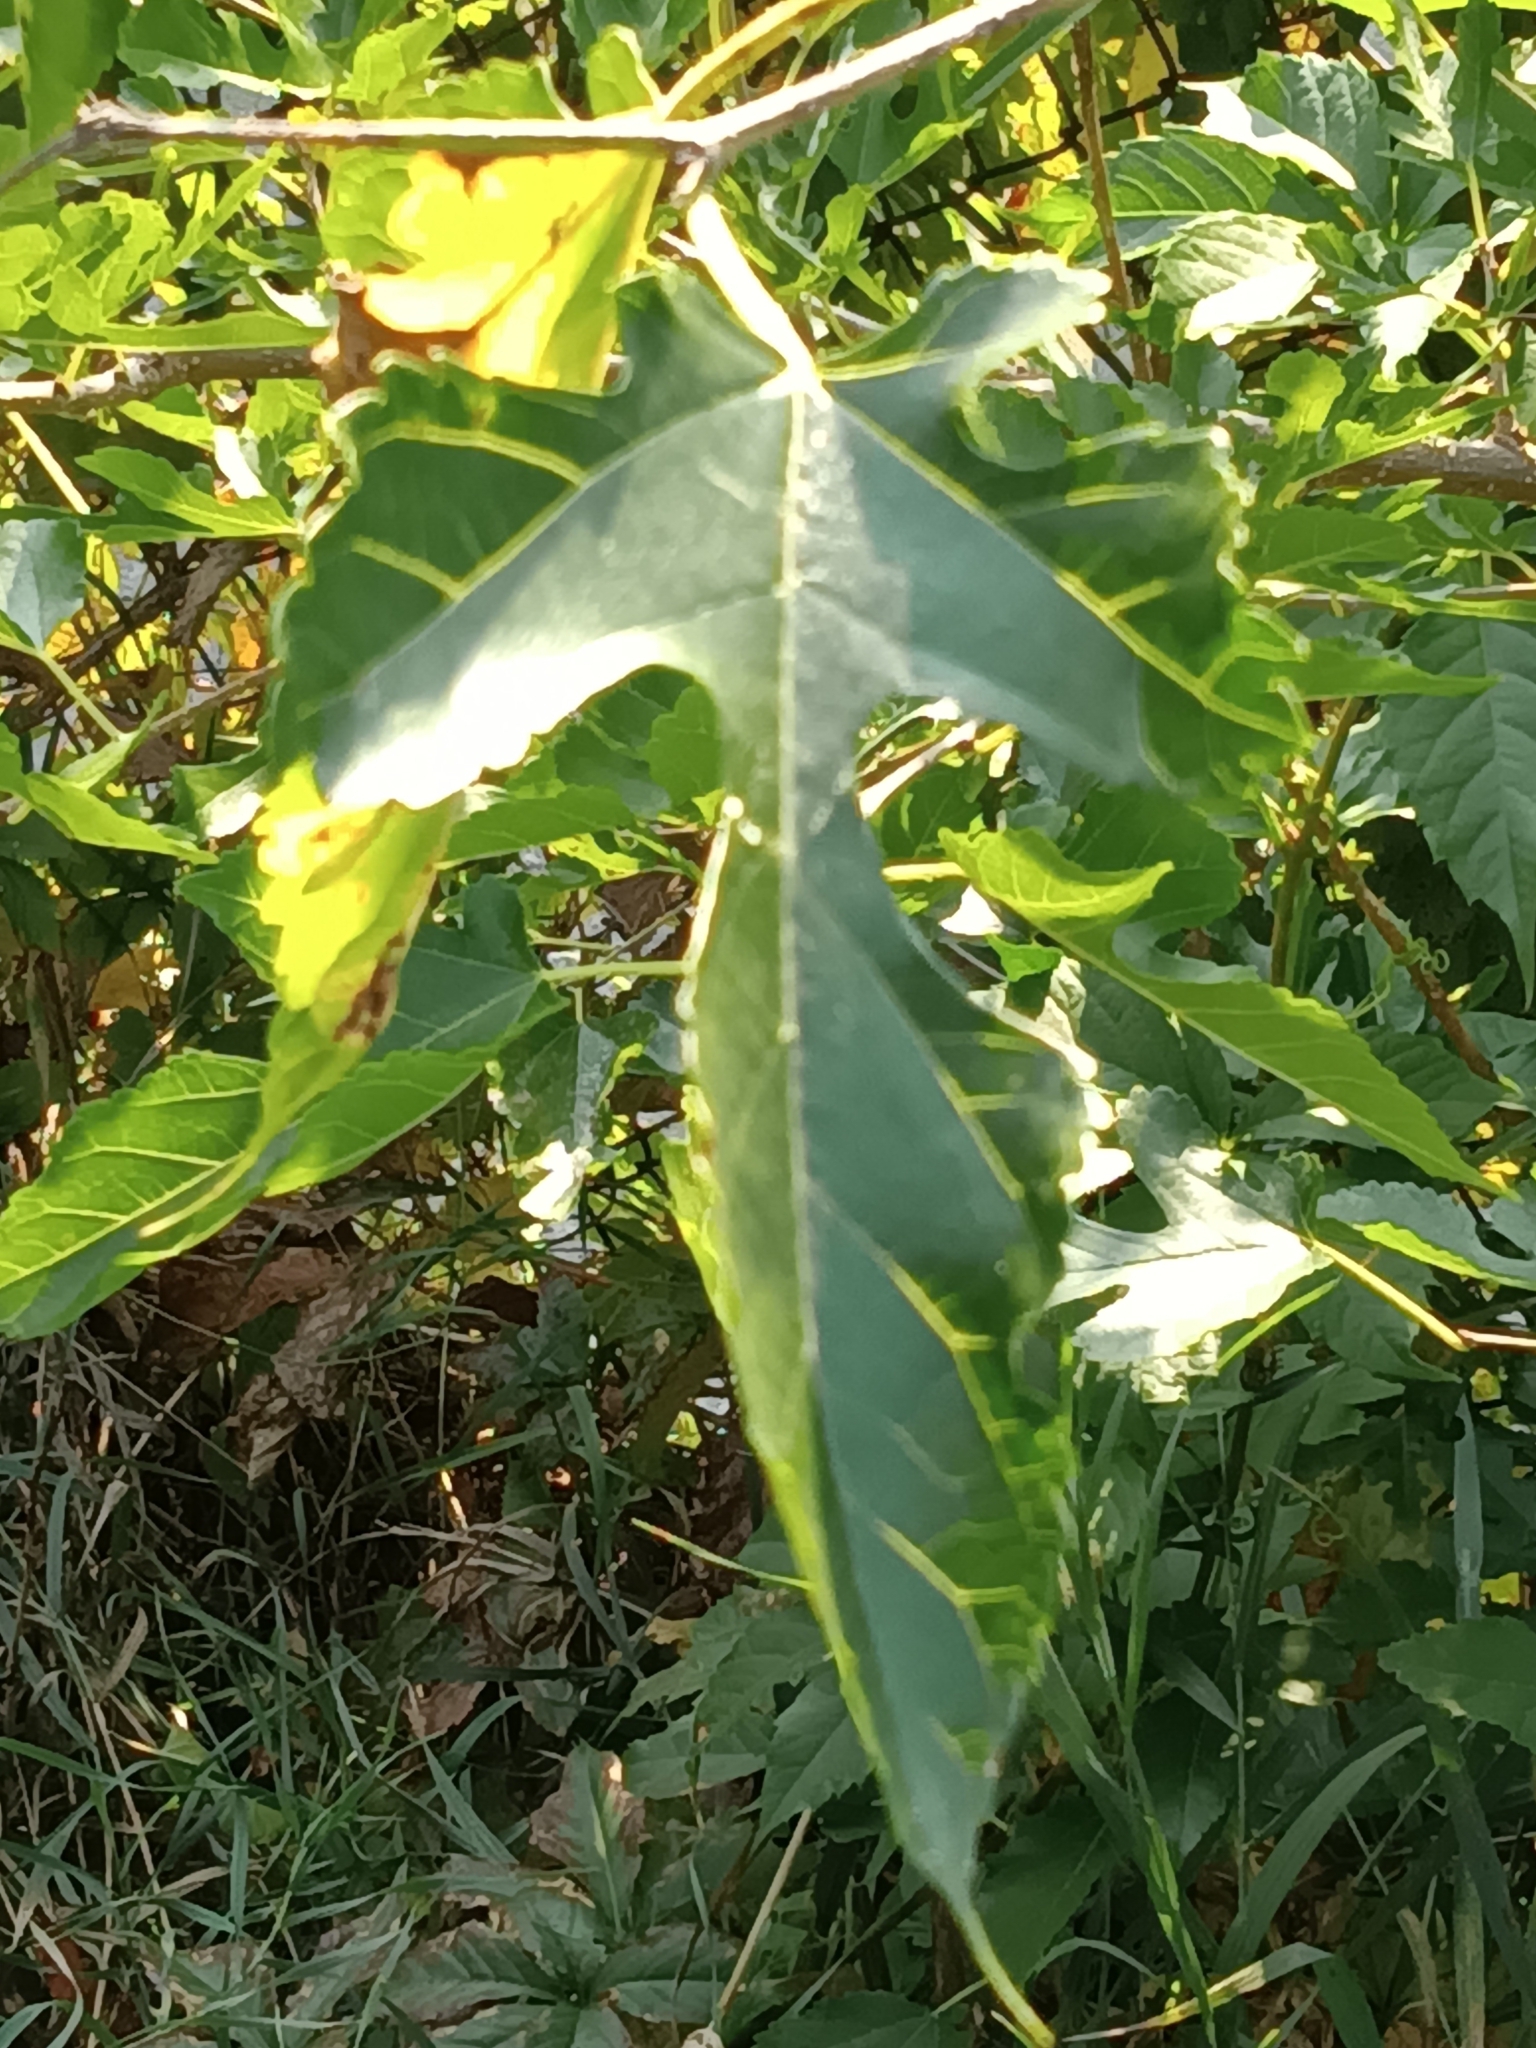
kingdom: Plantae
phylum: Tracheophyta
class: Magnoliopsida
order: Rosales
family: Moraceae
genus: Morus
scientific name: Morus alba
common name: White mulberry
